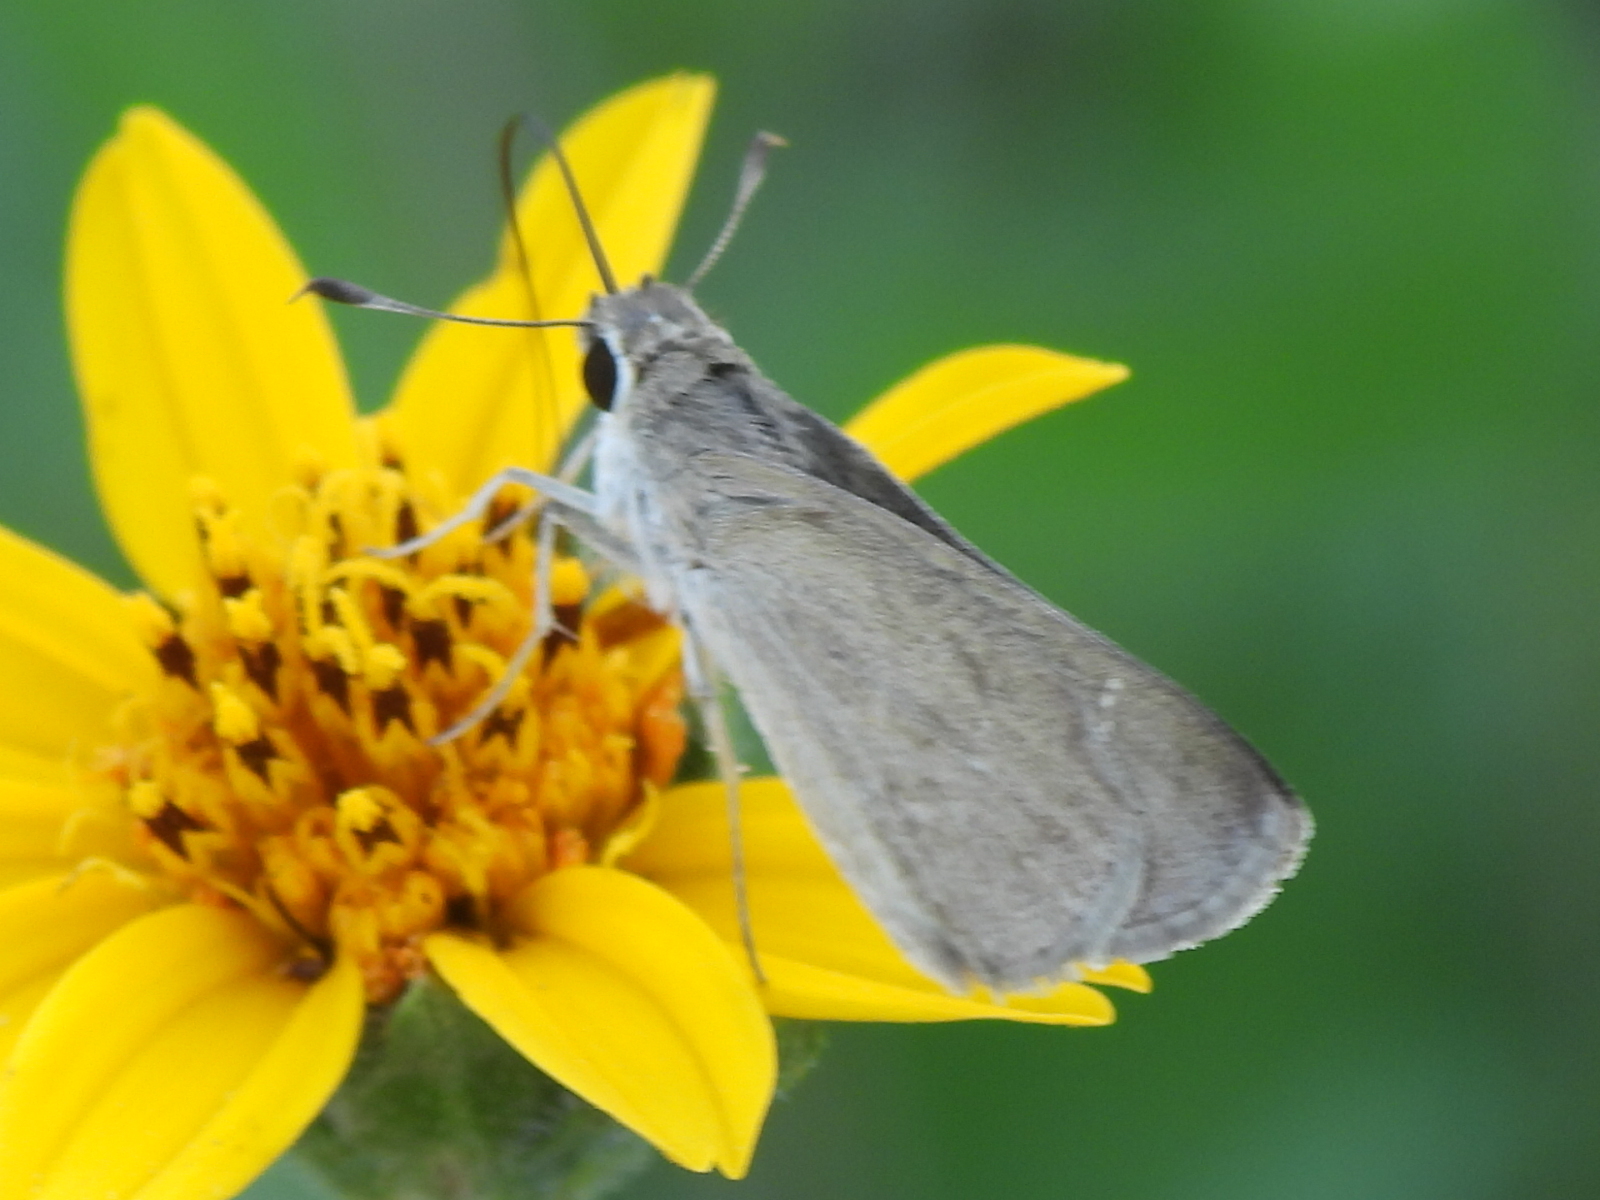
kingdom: Animalia
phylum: Arthropoda
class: Insecta
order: Lepidoptera
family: Hesperiidae
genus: Lerodea
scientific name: Lerodea eufala
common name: Eufala skipper
